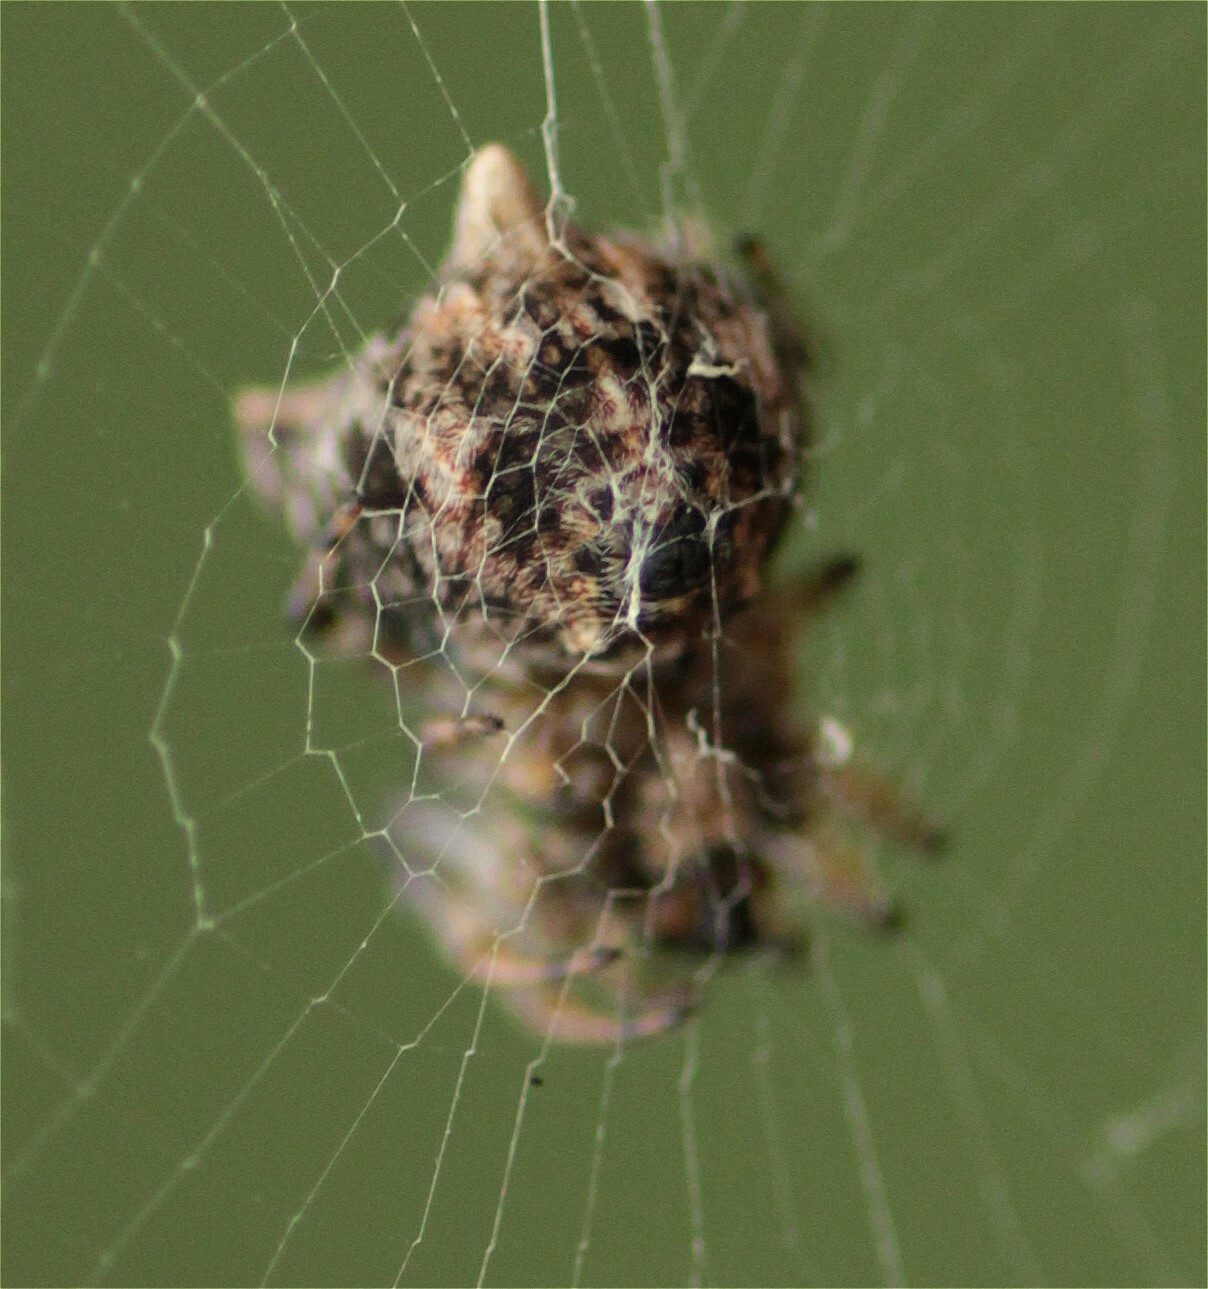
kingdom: Animalia
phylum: Arthropoda
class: Arachnida
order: Araneae
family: Araneidae
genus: Cyclosa
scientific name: Cyclosa triquetra
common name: Orb weavers
